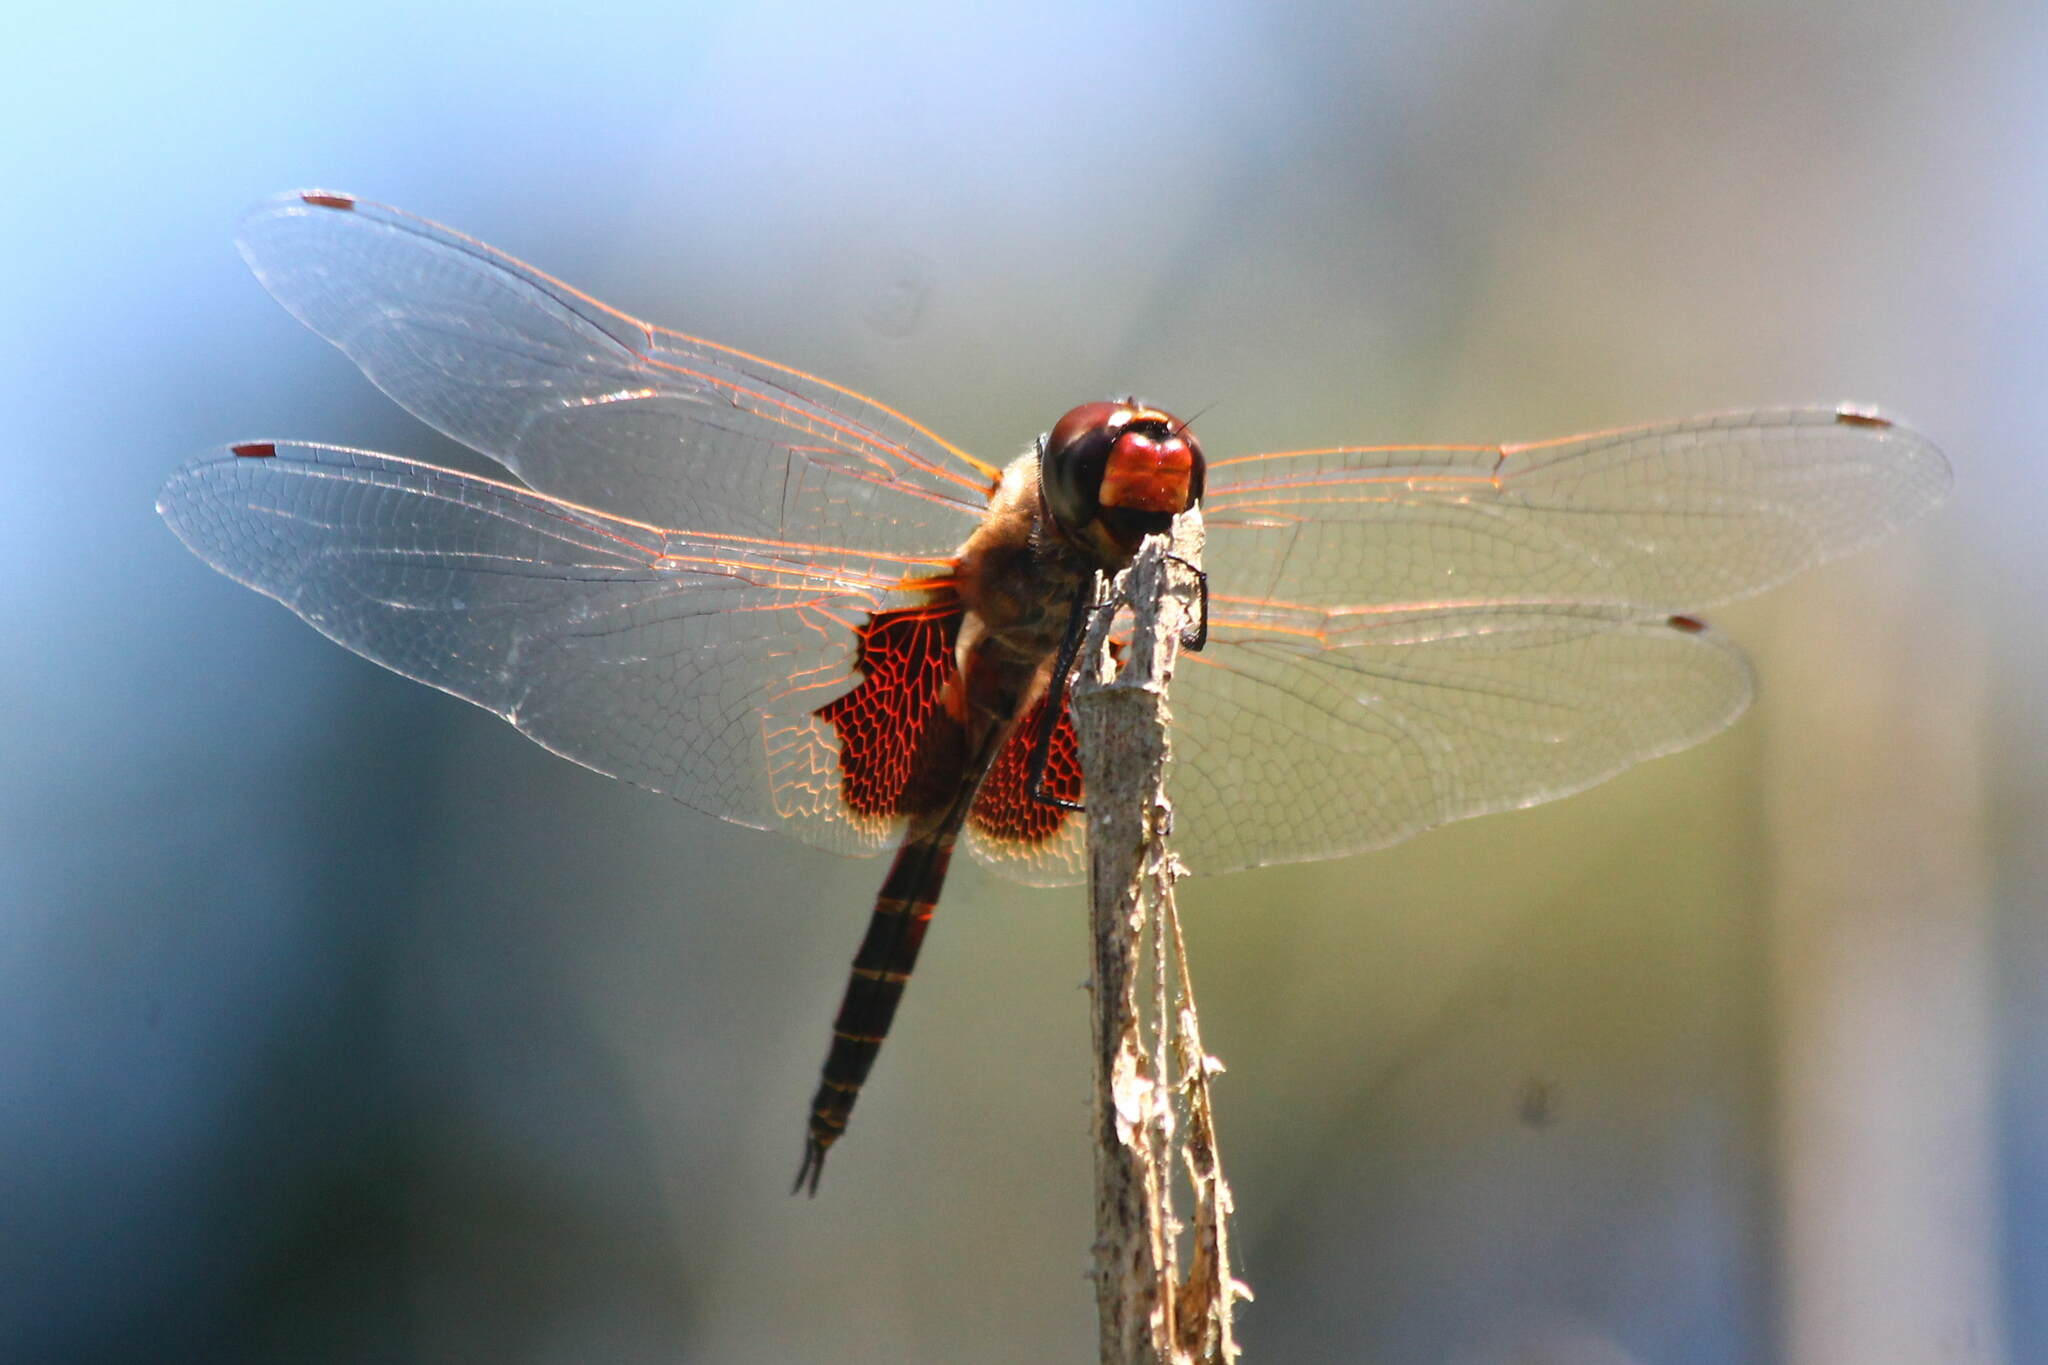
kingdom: Animalia
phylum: Arthropoda
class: Insecta
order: Odonata
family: Libellulidae
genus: Tramea
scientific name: Tramea loewii
